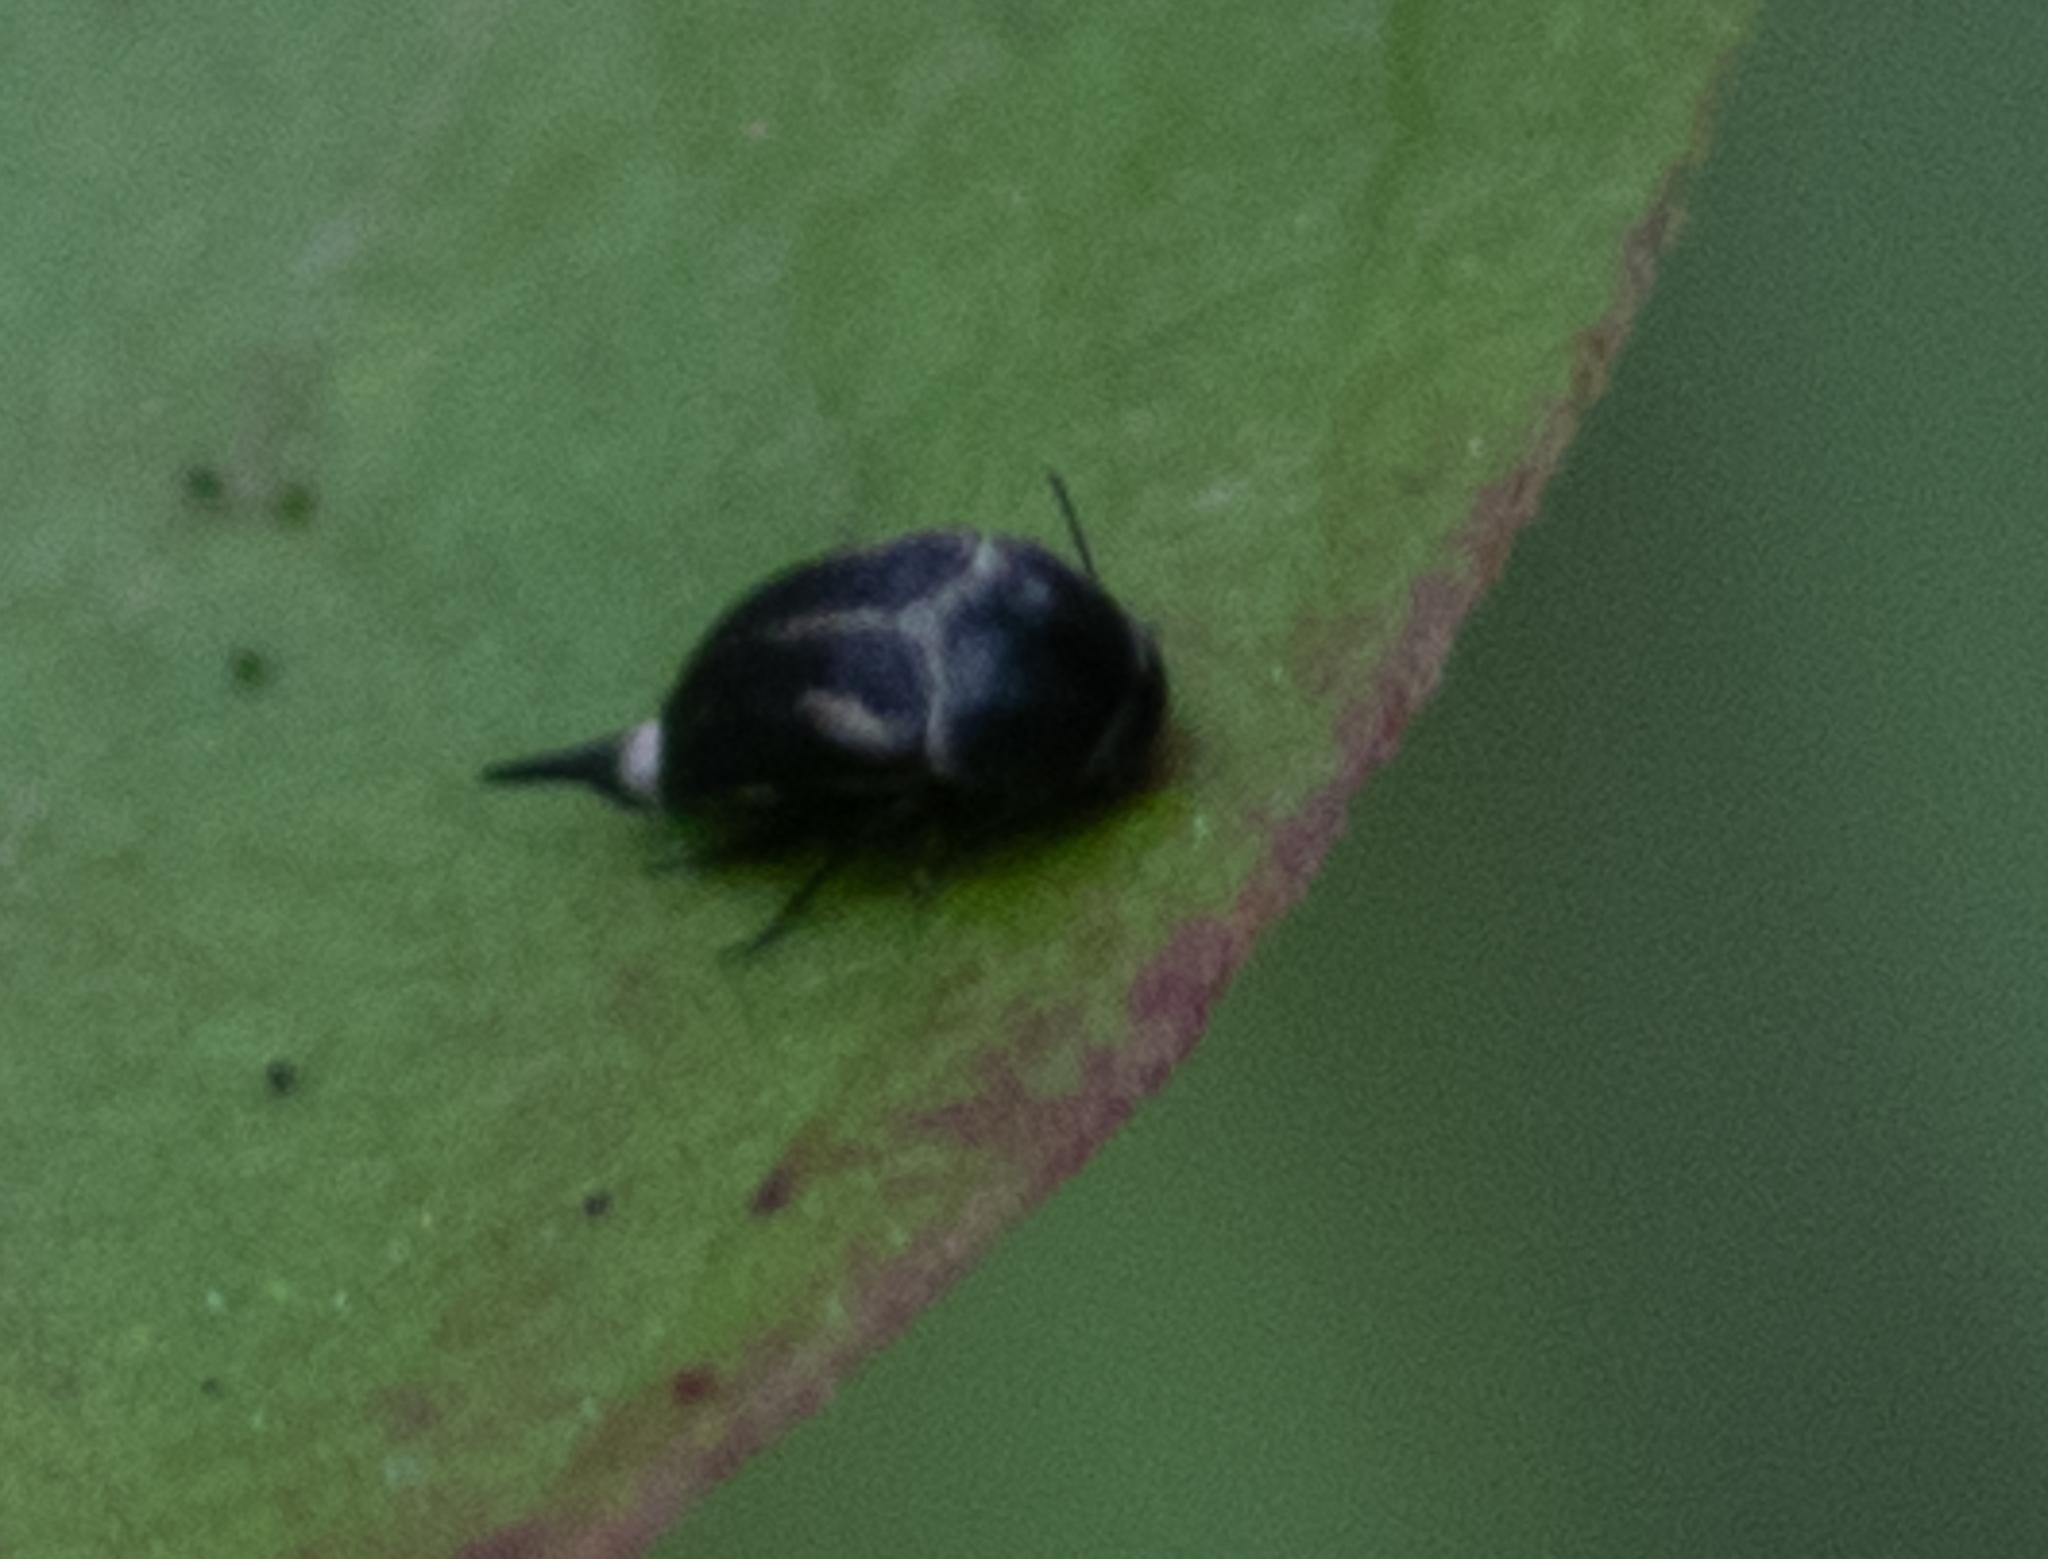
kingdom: Animalia
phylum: Arthropoda
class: Insecta
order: Coleoptera
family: Mordellidae
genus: Mordella
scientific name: Mordella obliqua
